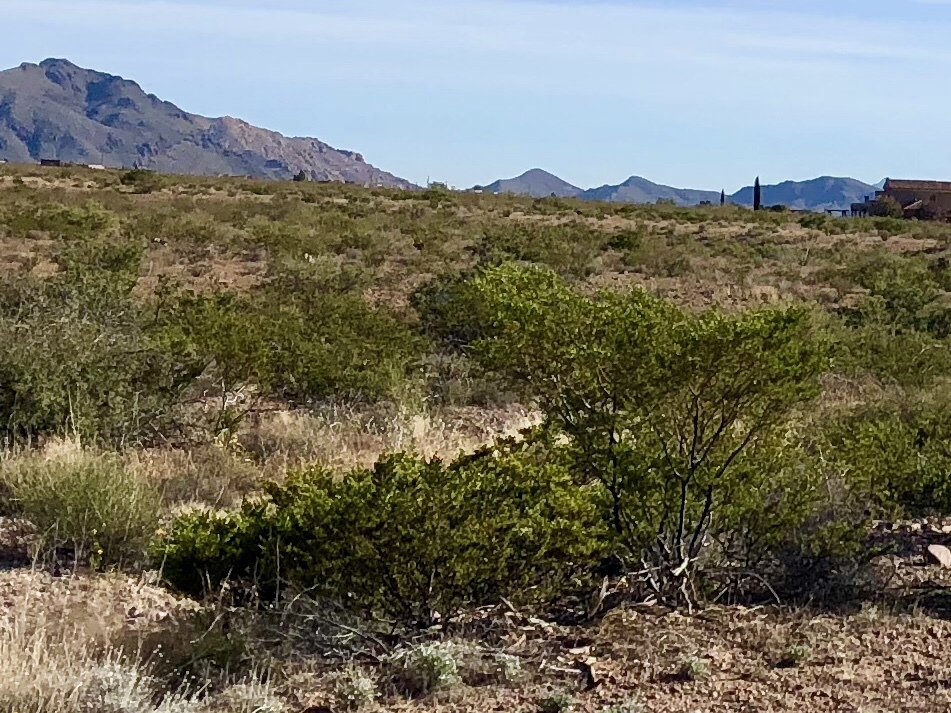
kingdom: Plantae
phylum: Tracheophyta
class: Magnoliopsida
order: Zygophyllales
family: Zygophyllaceae
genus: Larrea
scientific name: Larrea tridentata
